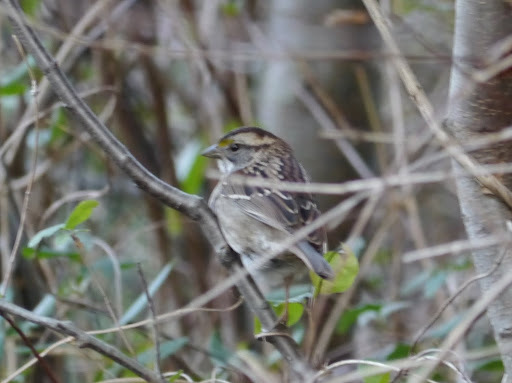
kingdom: Animalia
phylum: Chordata
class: Aves
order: Passeriformes
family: Passerellidae
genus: Zonotrichia
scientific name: Zonotrichia albicollis
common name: White-throated sparrow
